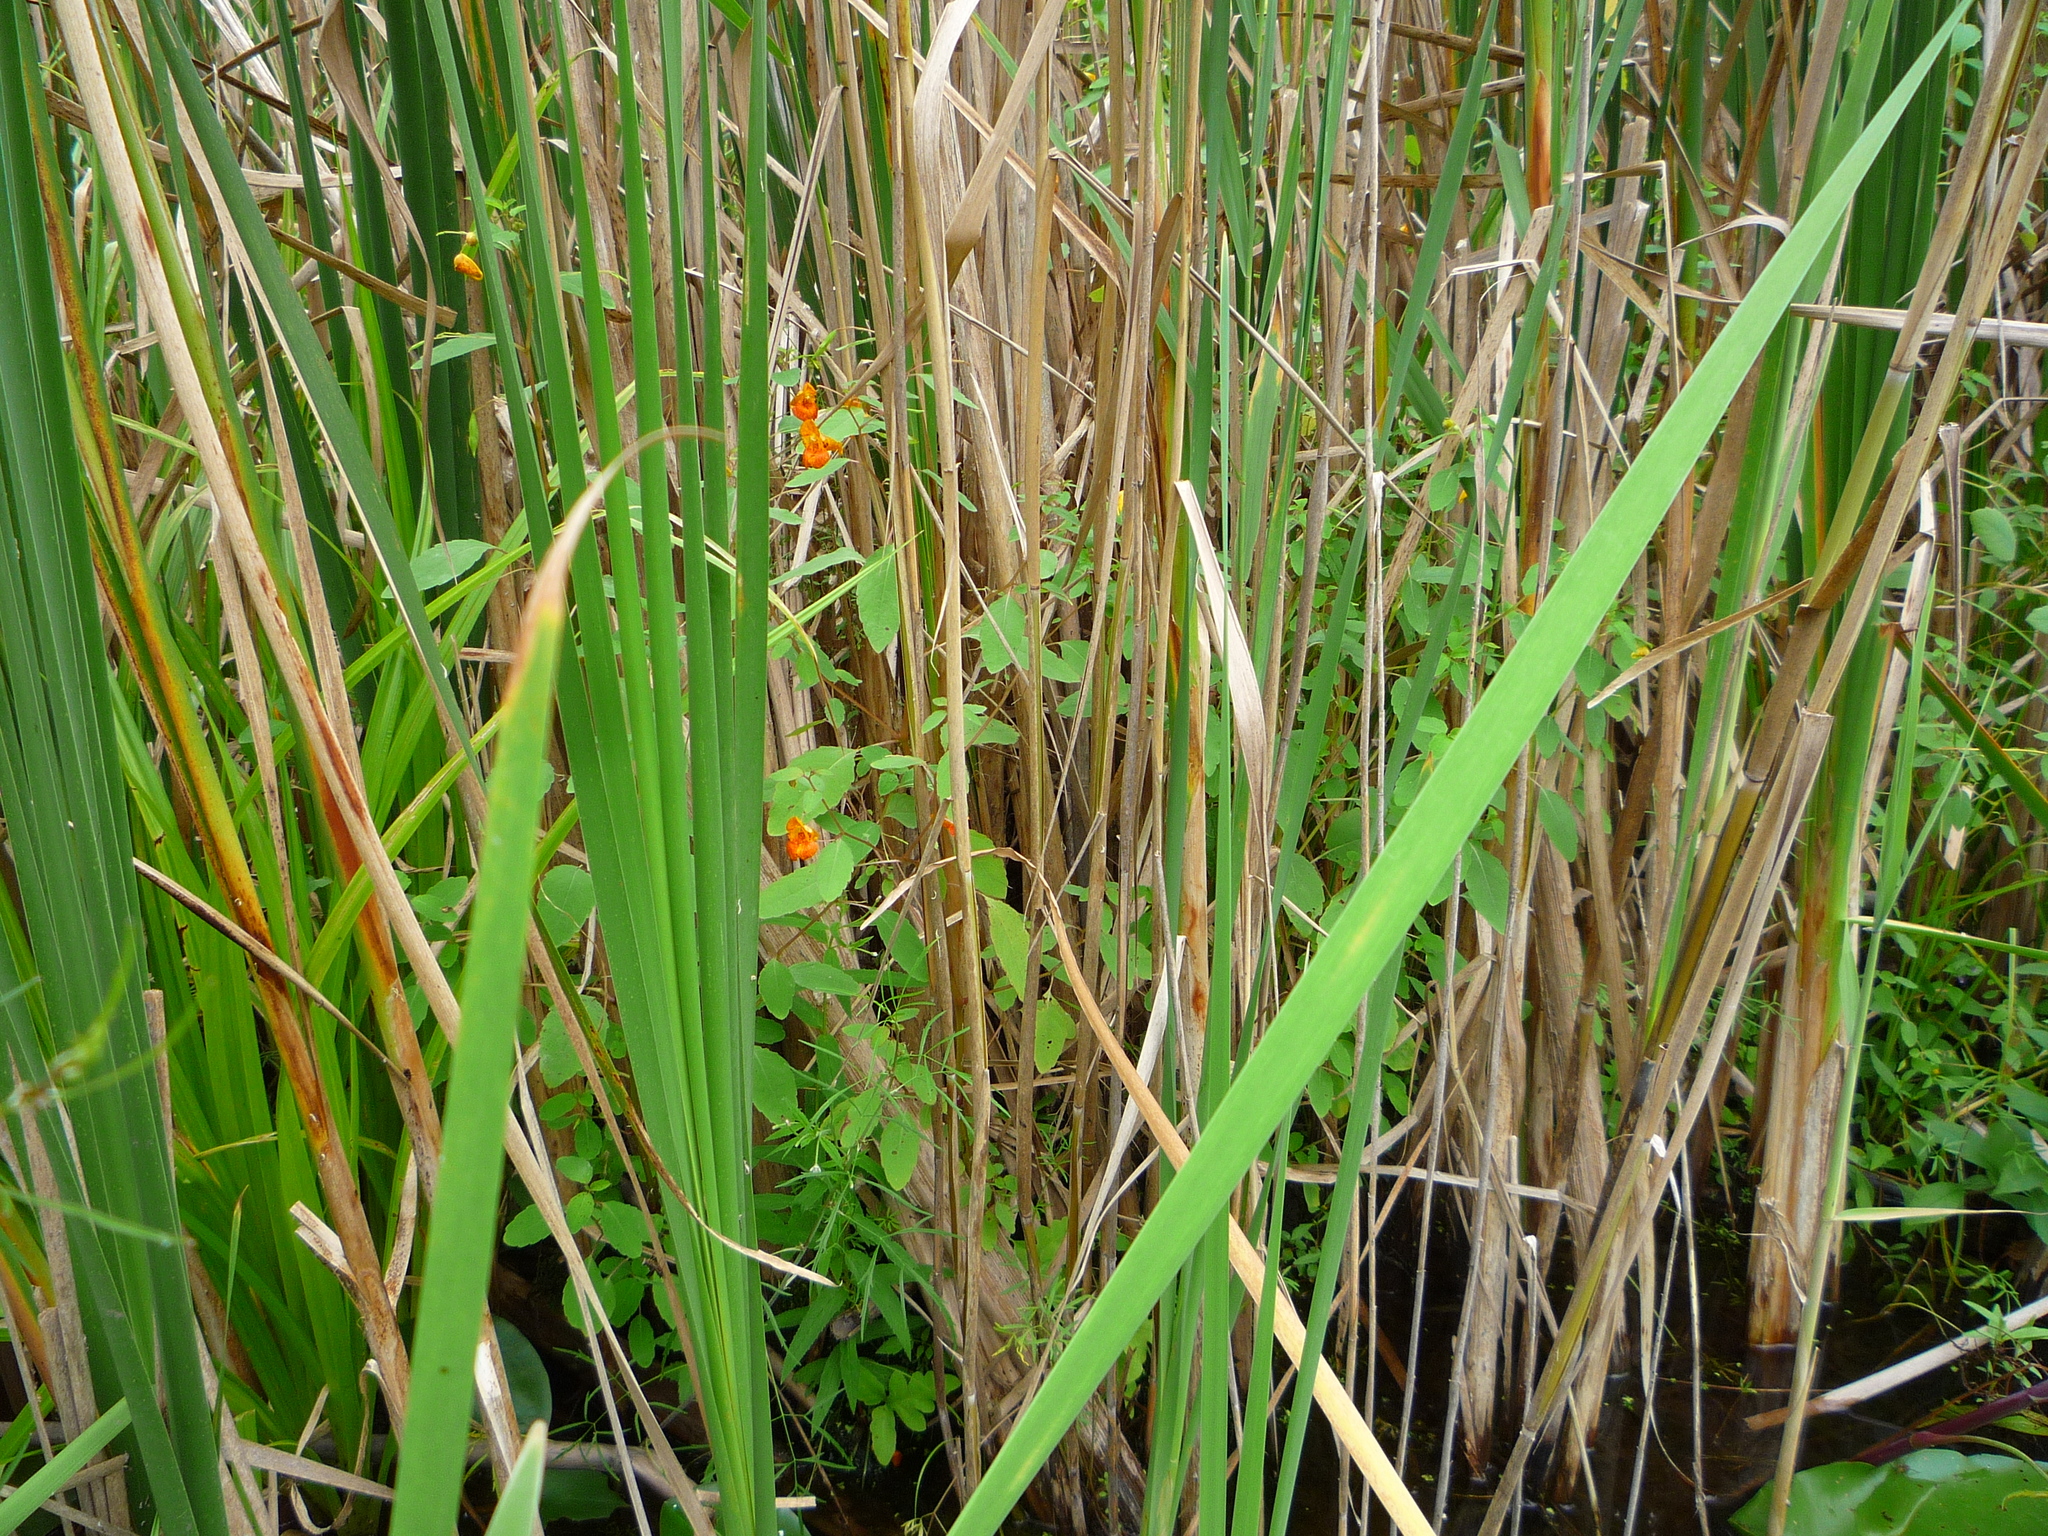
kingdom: Plantae
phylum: Tracheophyta
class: Magnoliopsida
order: Ericales
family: Balsaminaceae
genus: Impatiens
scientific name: Impatiens capensis
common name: Orange balsam
